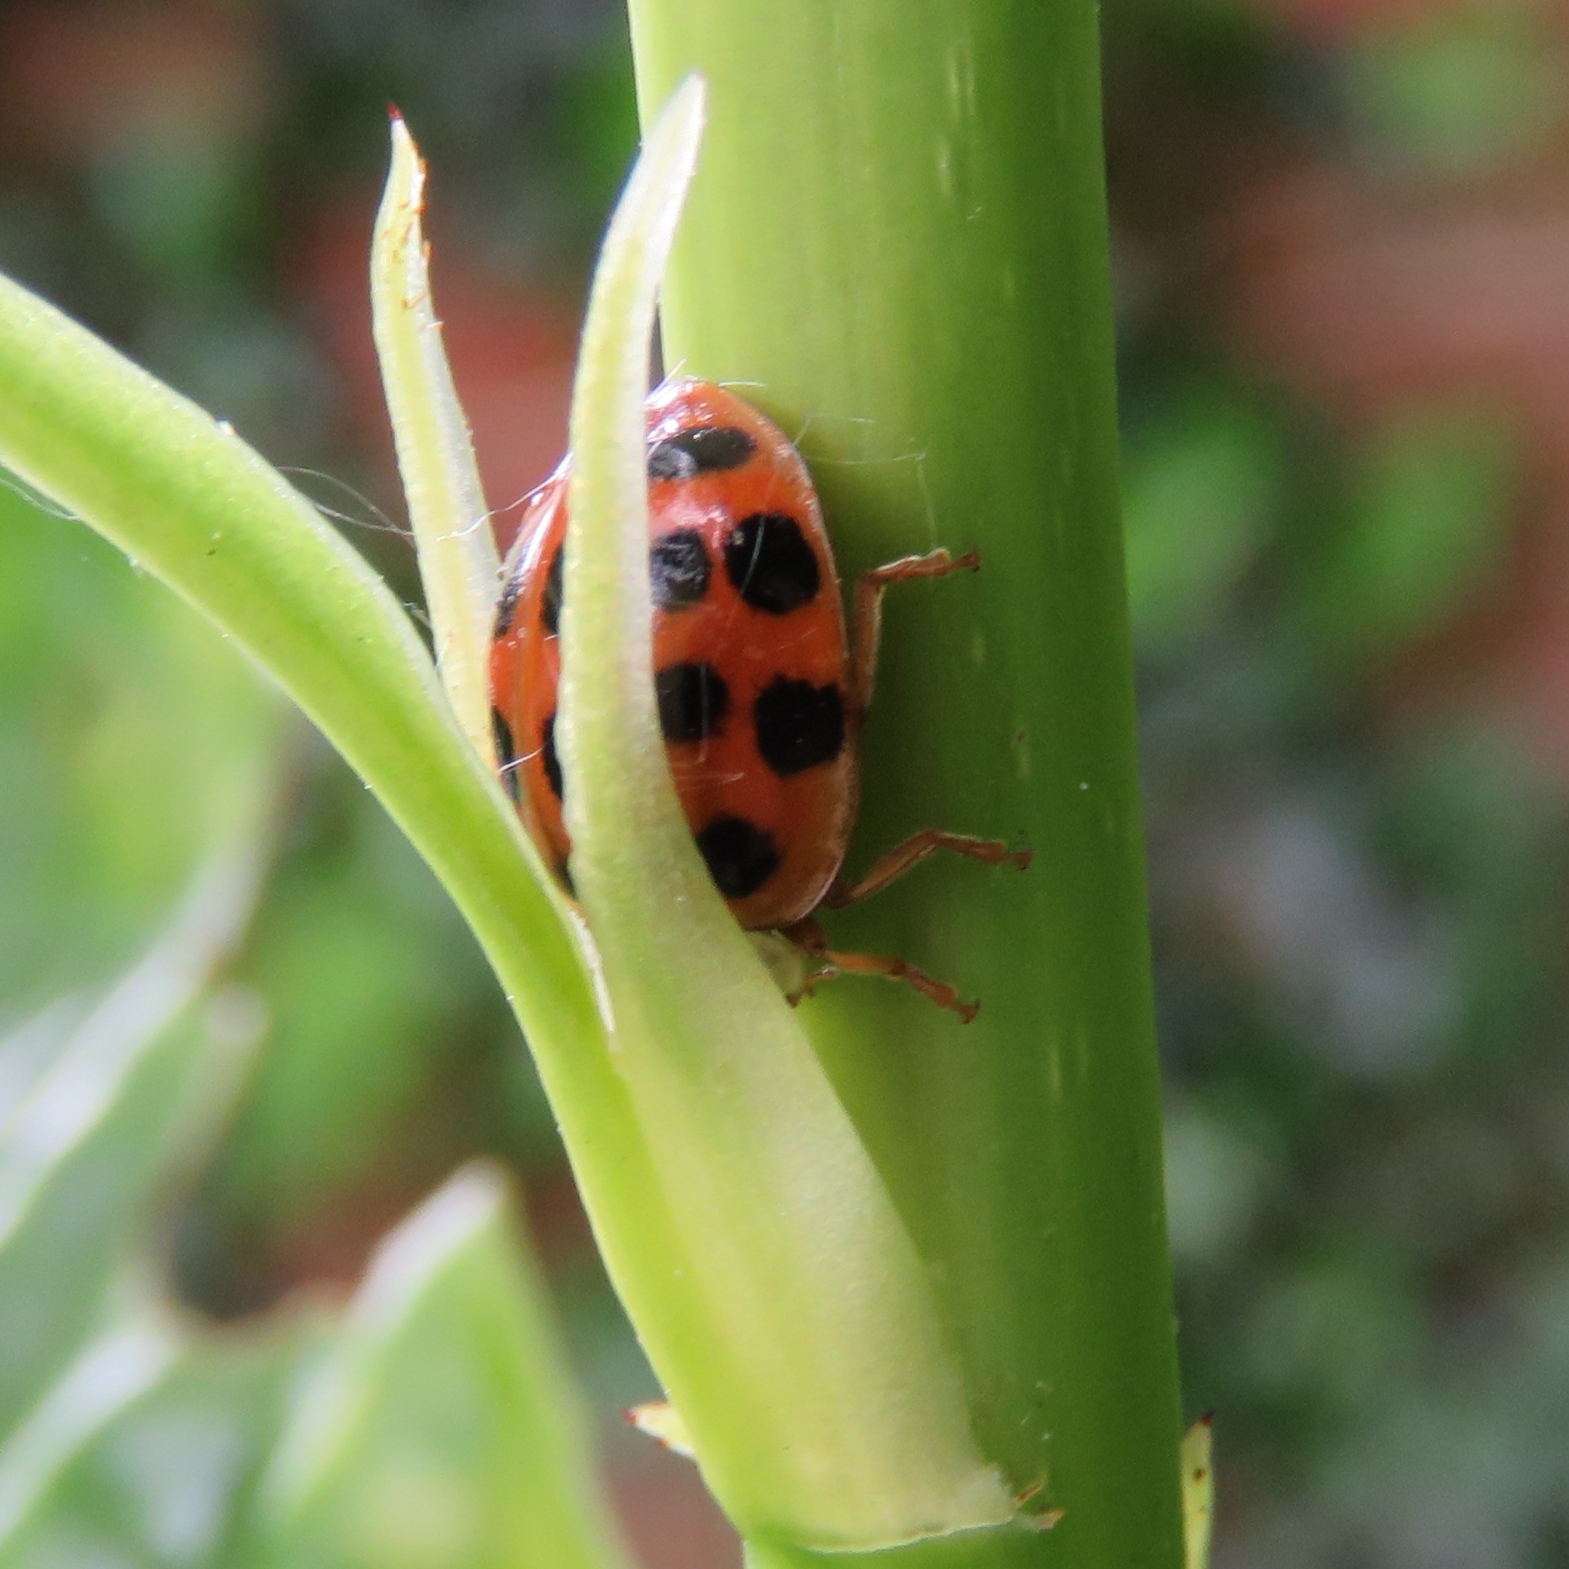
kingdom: Animalia
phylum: Arthropoda
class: Insecta
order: Coleoptera
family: Coccinellidae
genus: Harmonia
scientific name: Harmonia axyridis
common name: Harlequin ladybird
